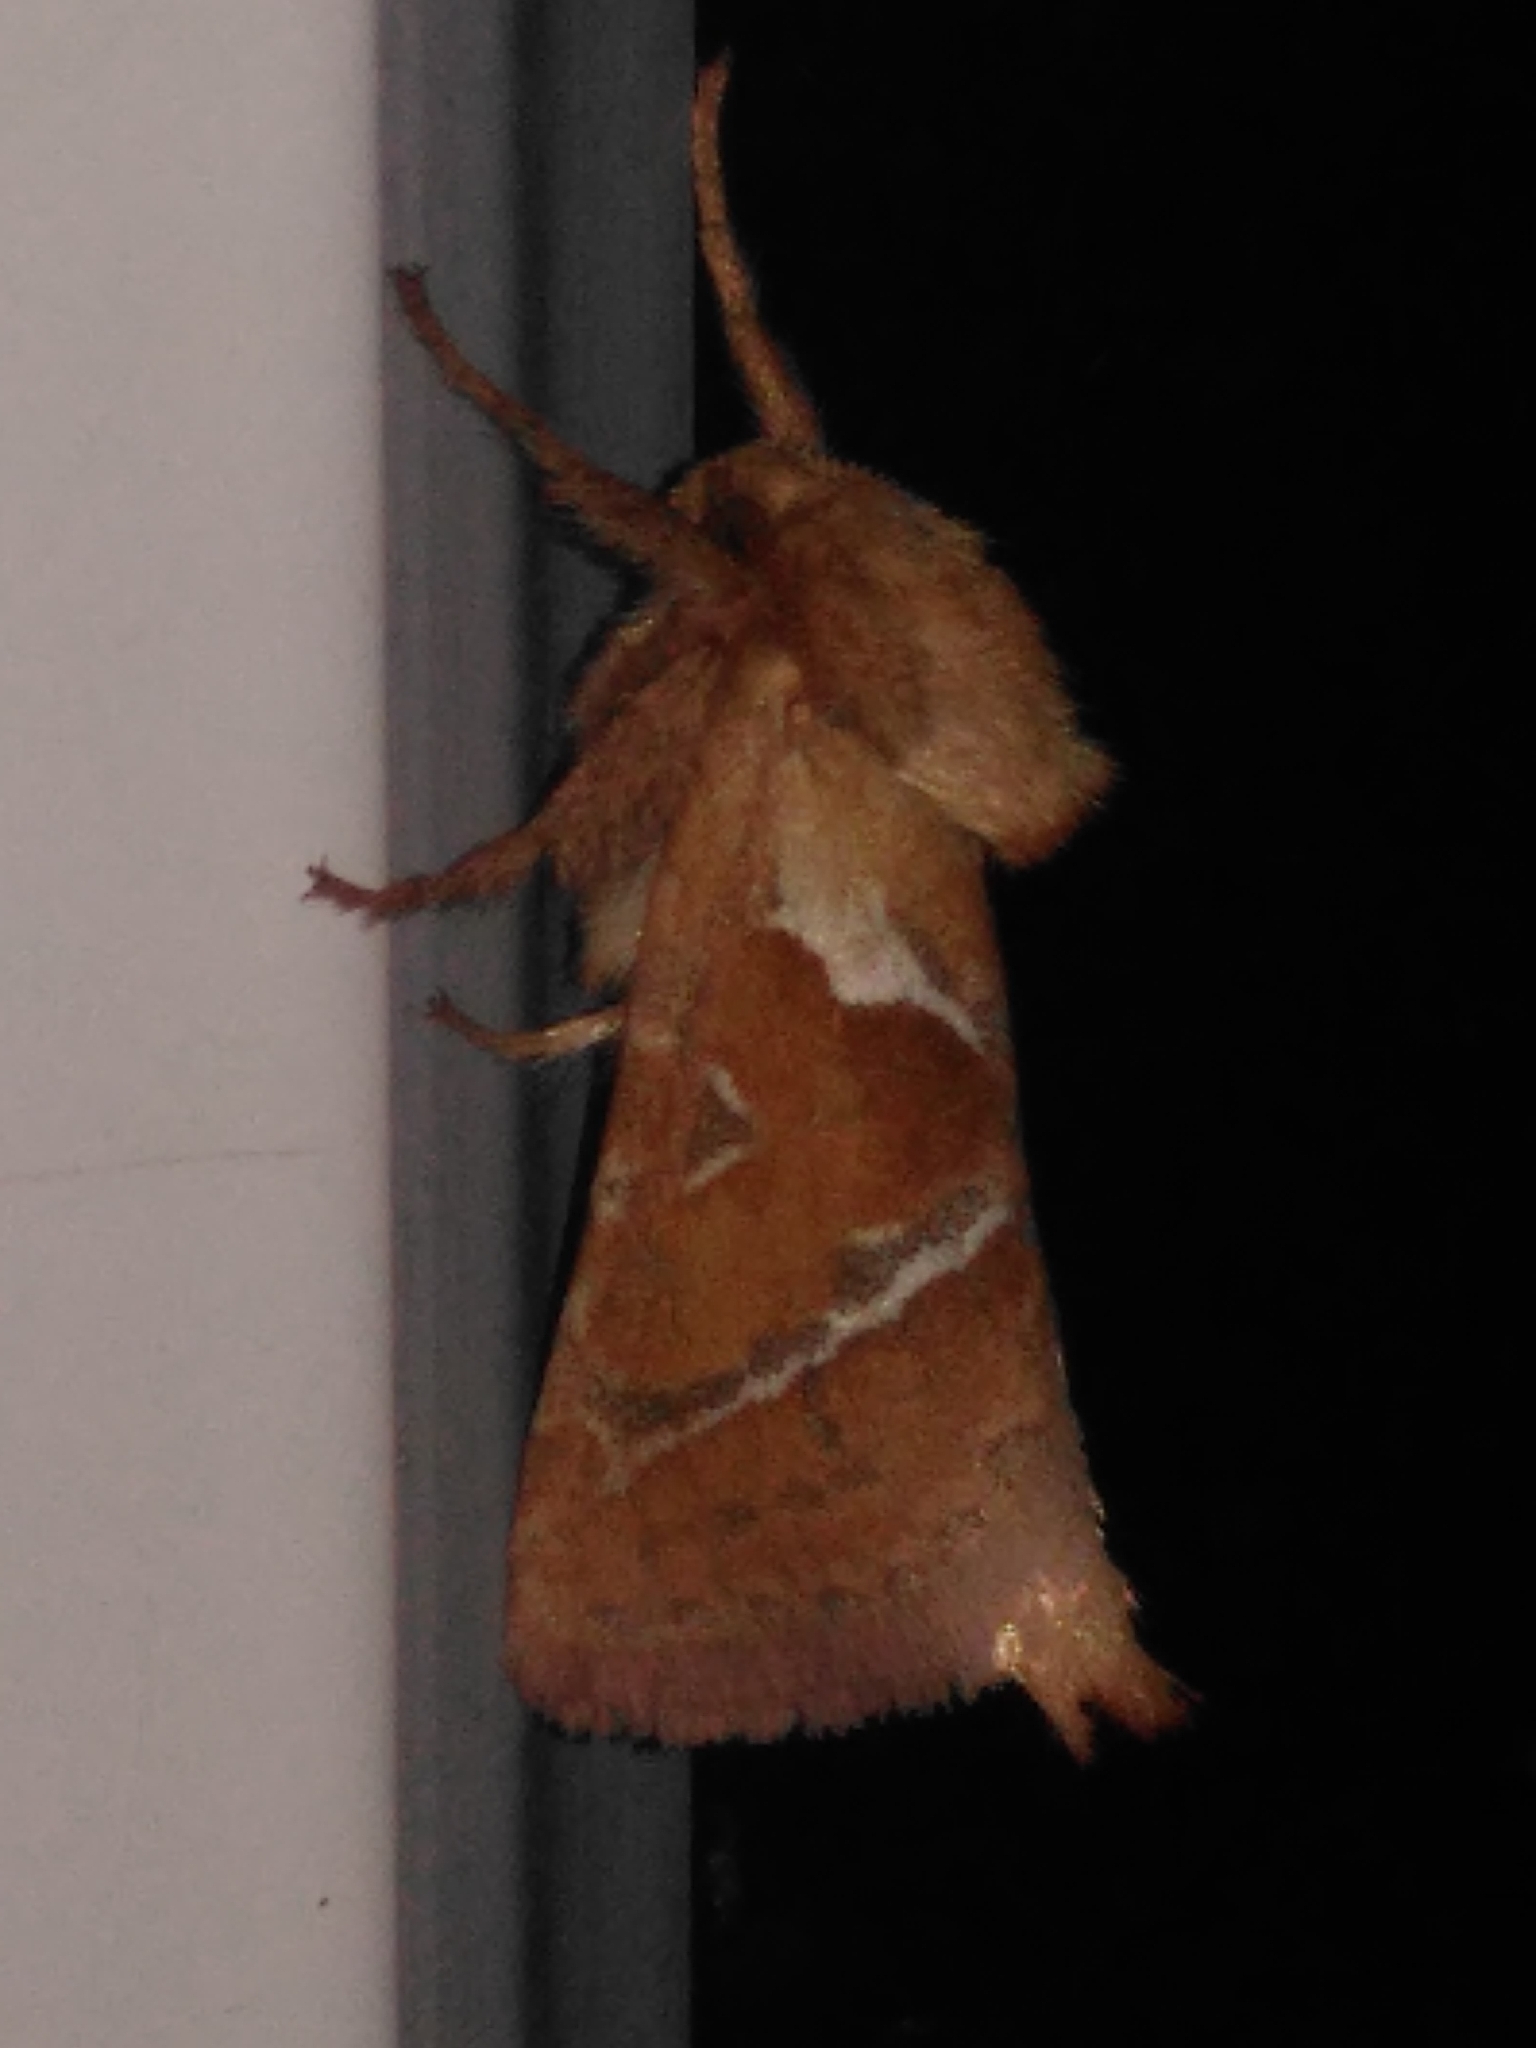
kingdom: Animalia
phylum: Arthropoda
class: Insecta
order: Lepidoptera
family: Hepialidae
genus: Triodia
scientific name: Triodia sylvina
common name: Orange swift
